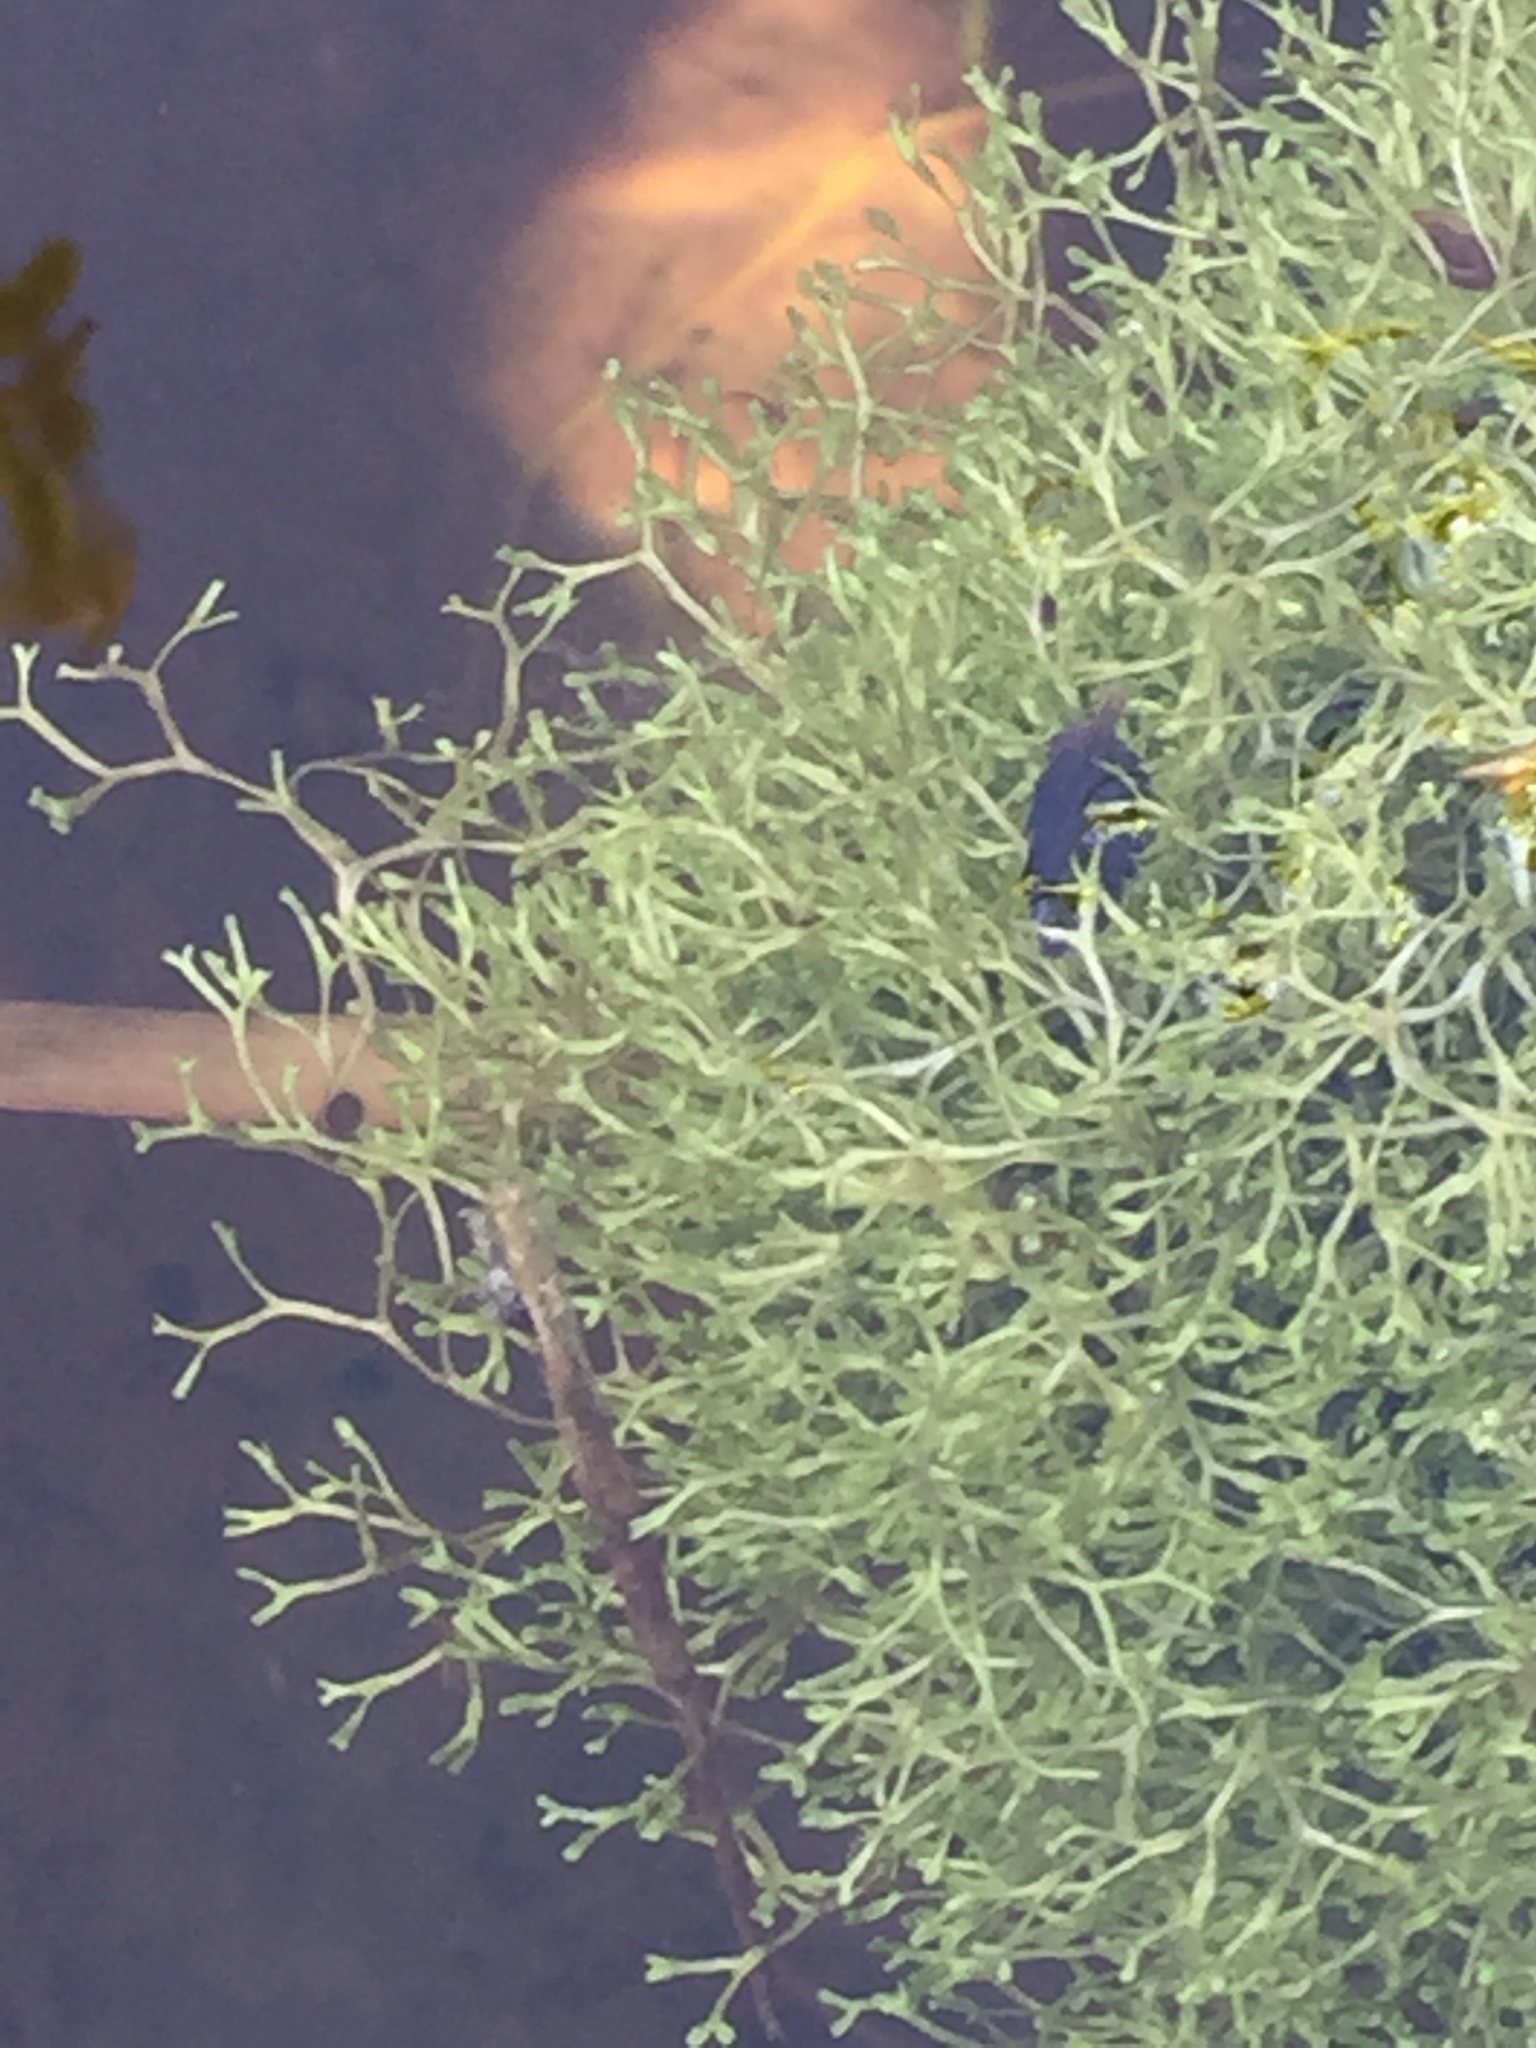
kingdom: Plantae
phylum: Marchantiophyta
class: Marchantiopsida
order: Marchantiales
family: Ricciaceae
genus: Riccia
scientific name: Riccia fluitans
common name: Floating crystalwort
